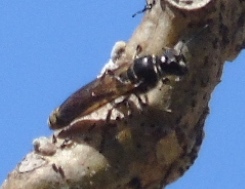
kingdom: Animalia
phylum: Arthropoda
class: Insecta
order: Hymenoptera
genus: Trypargilum
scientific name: Trypargilum
